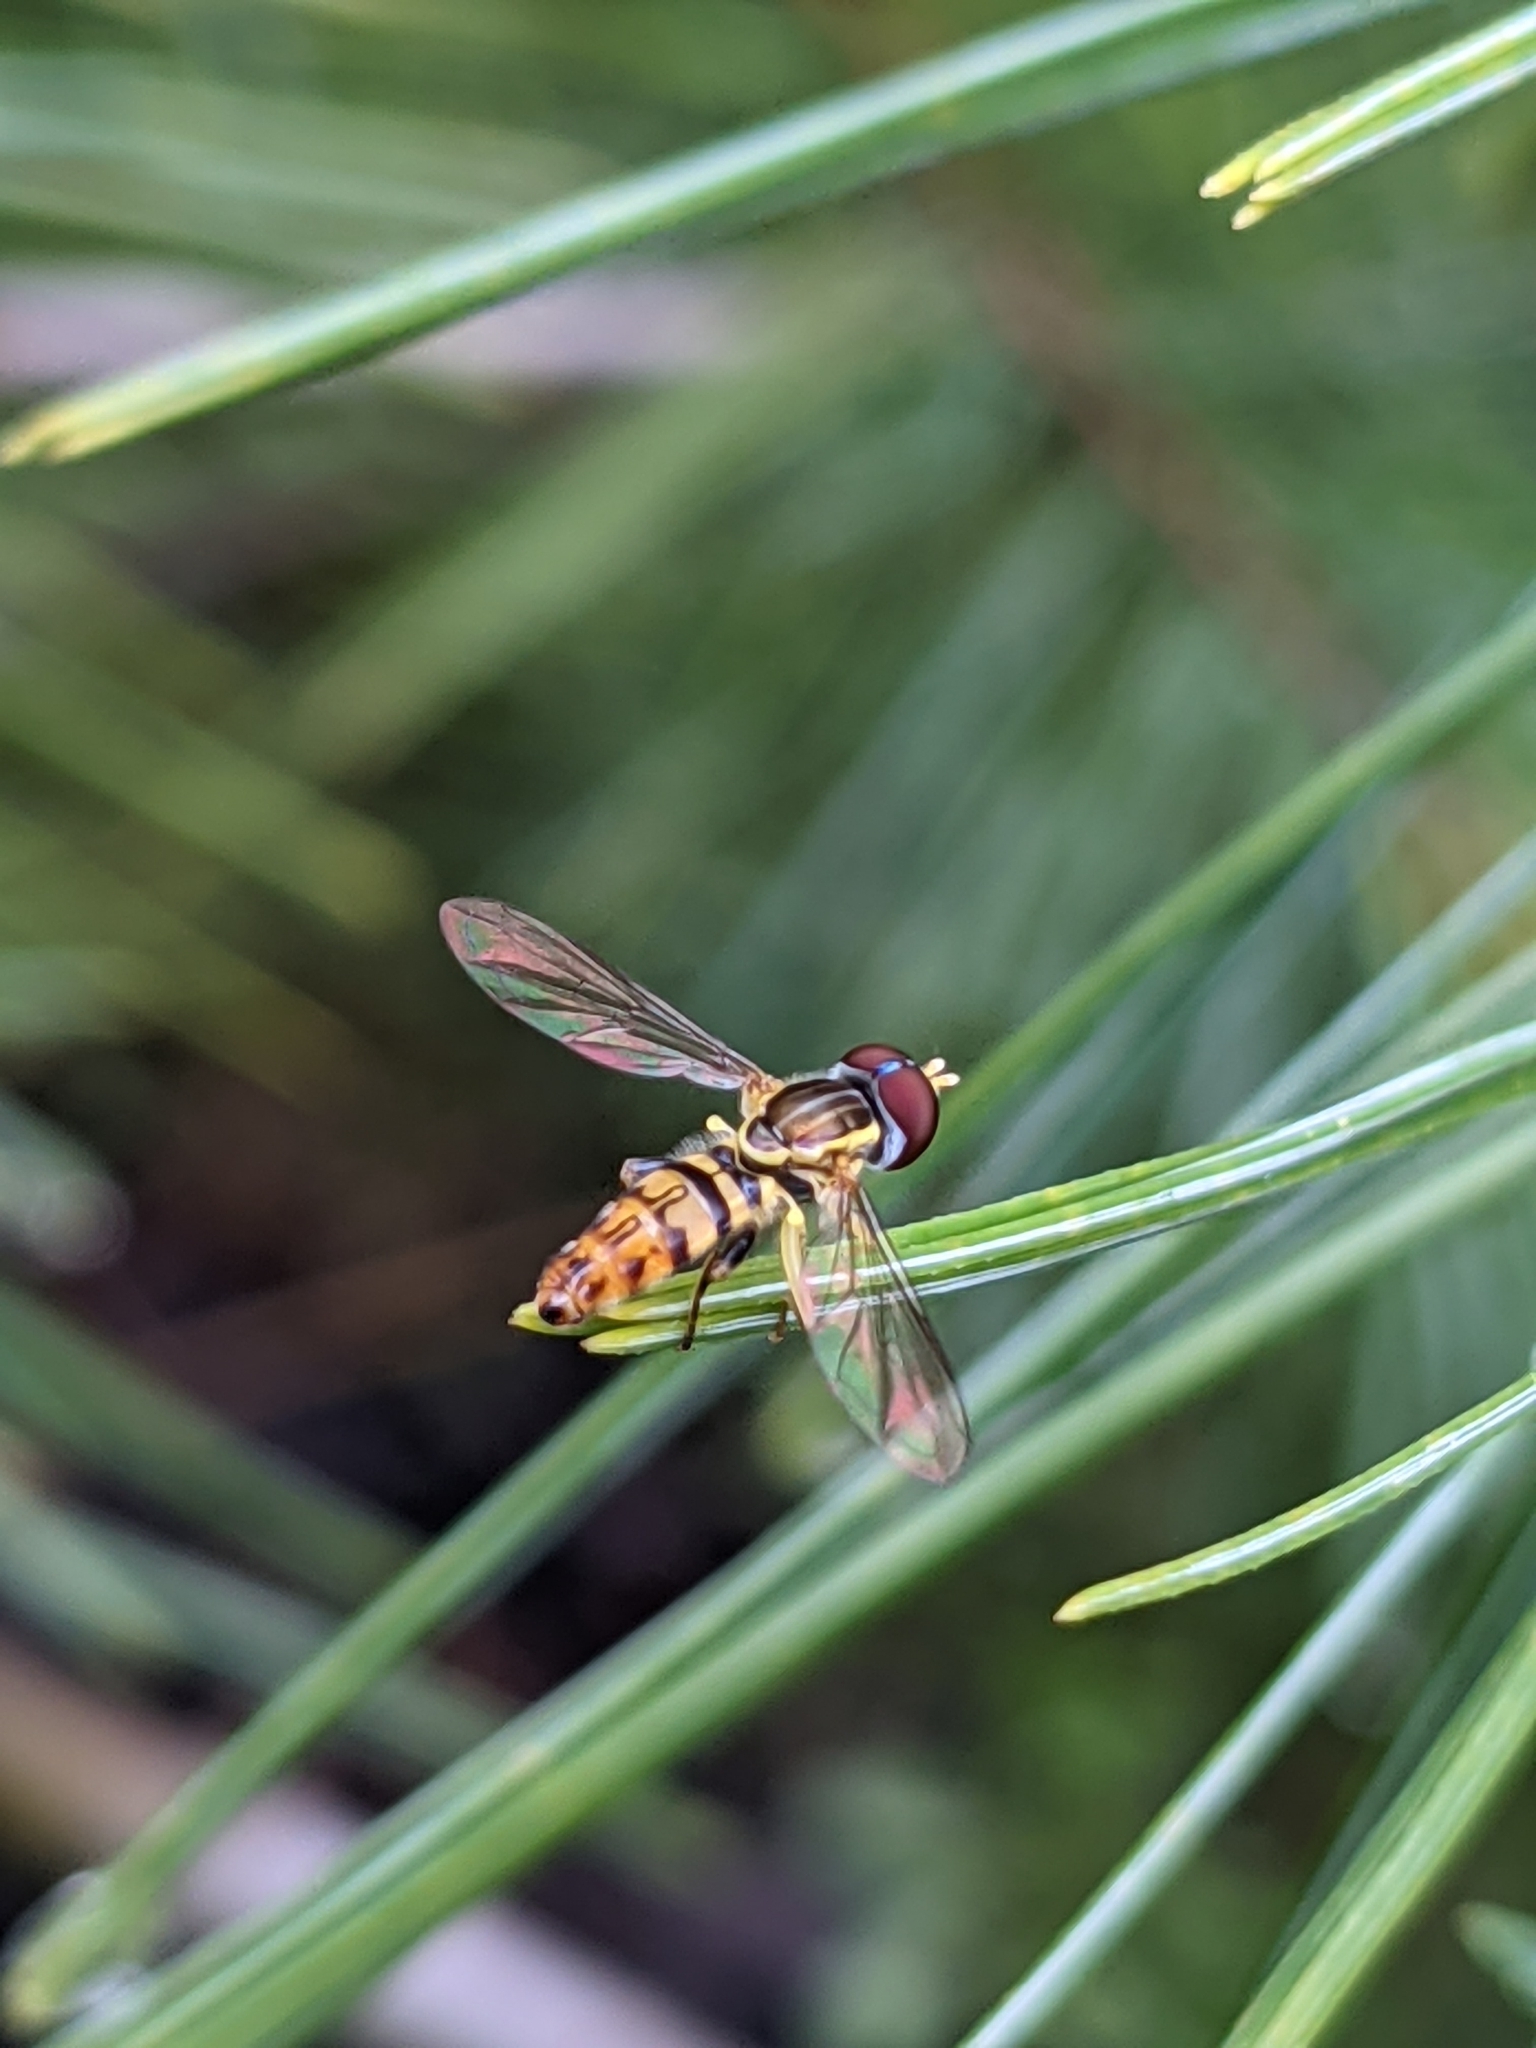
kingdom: Animalia
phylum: Arthropoda
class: Insecta
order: Diptera
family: Syrphidae
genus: Toxomerus
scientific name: Toxomerus geminatus
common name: Eastern calligrapher
